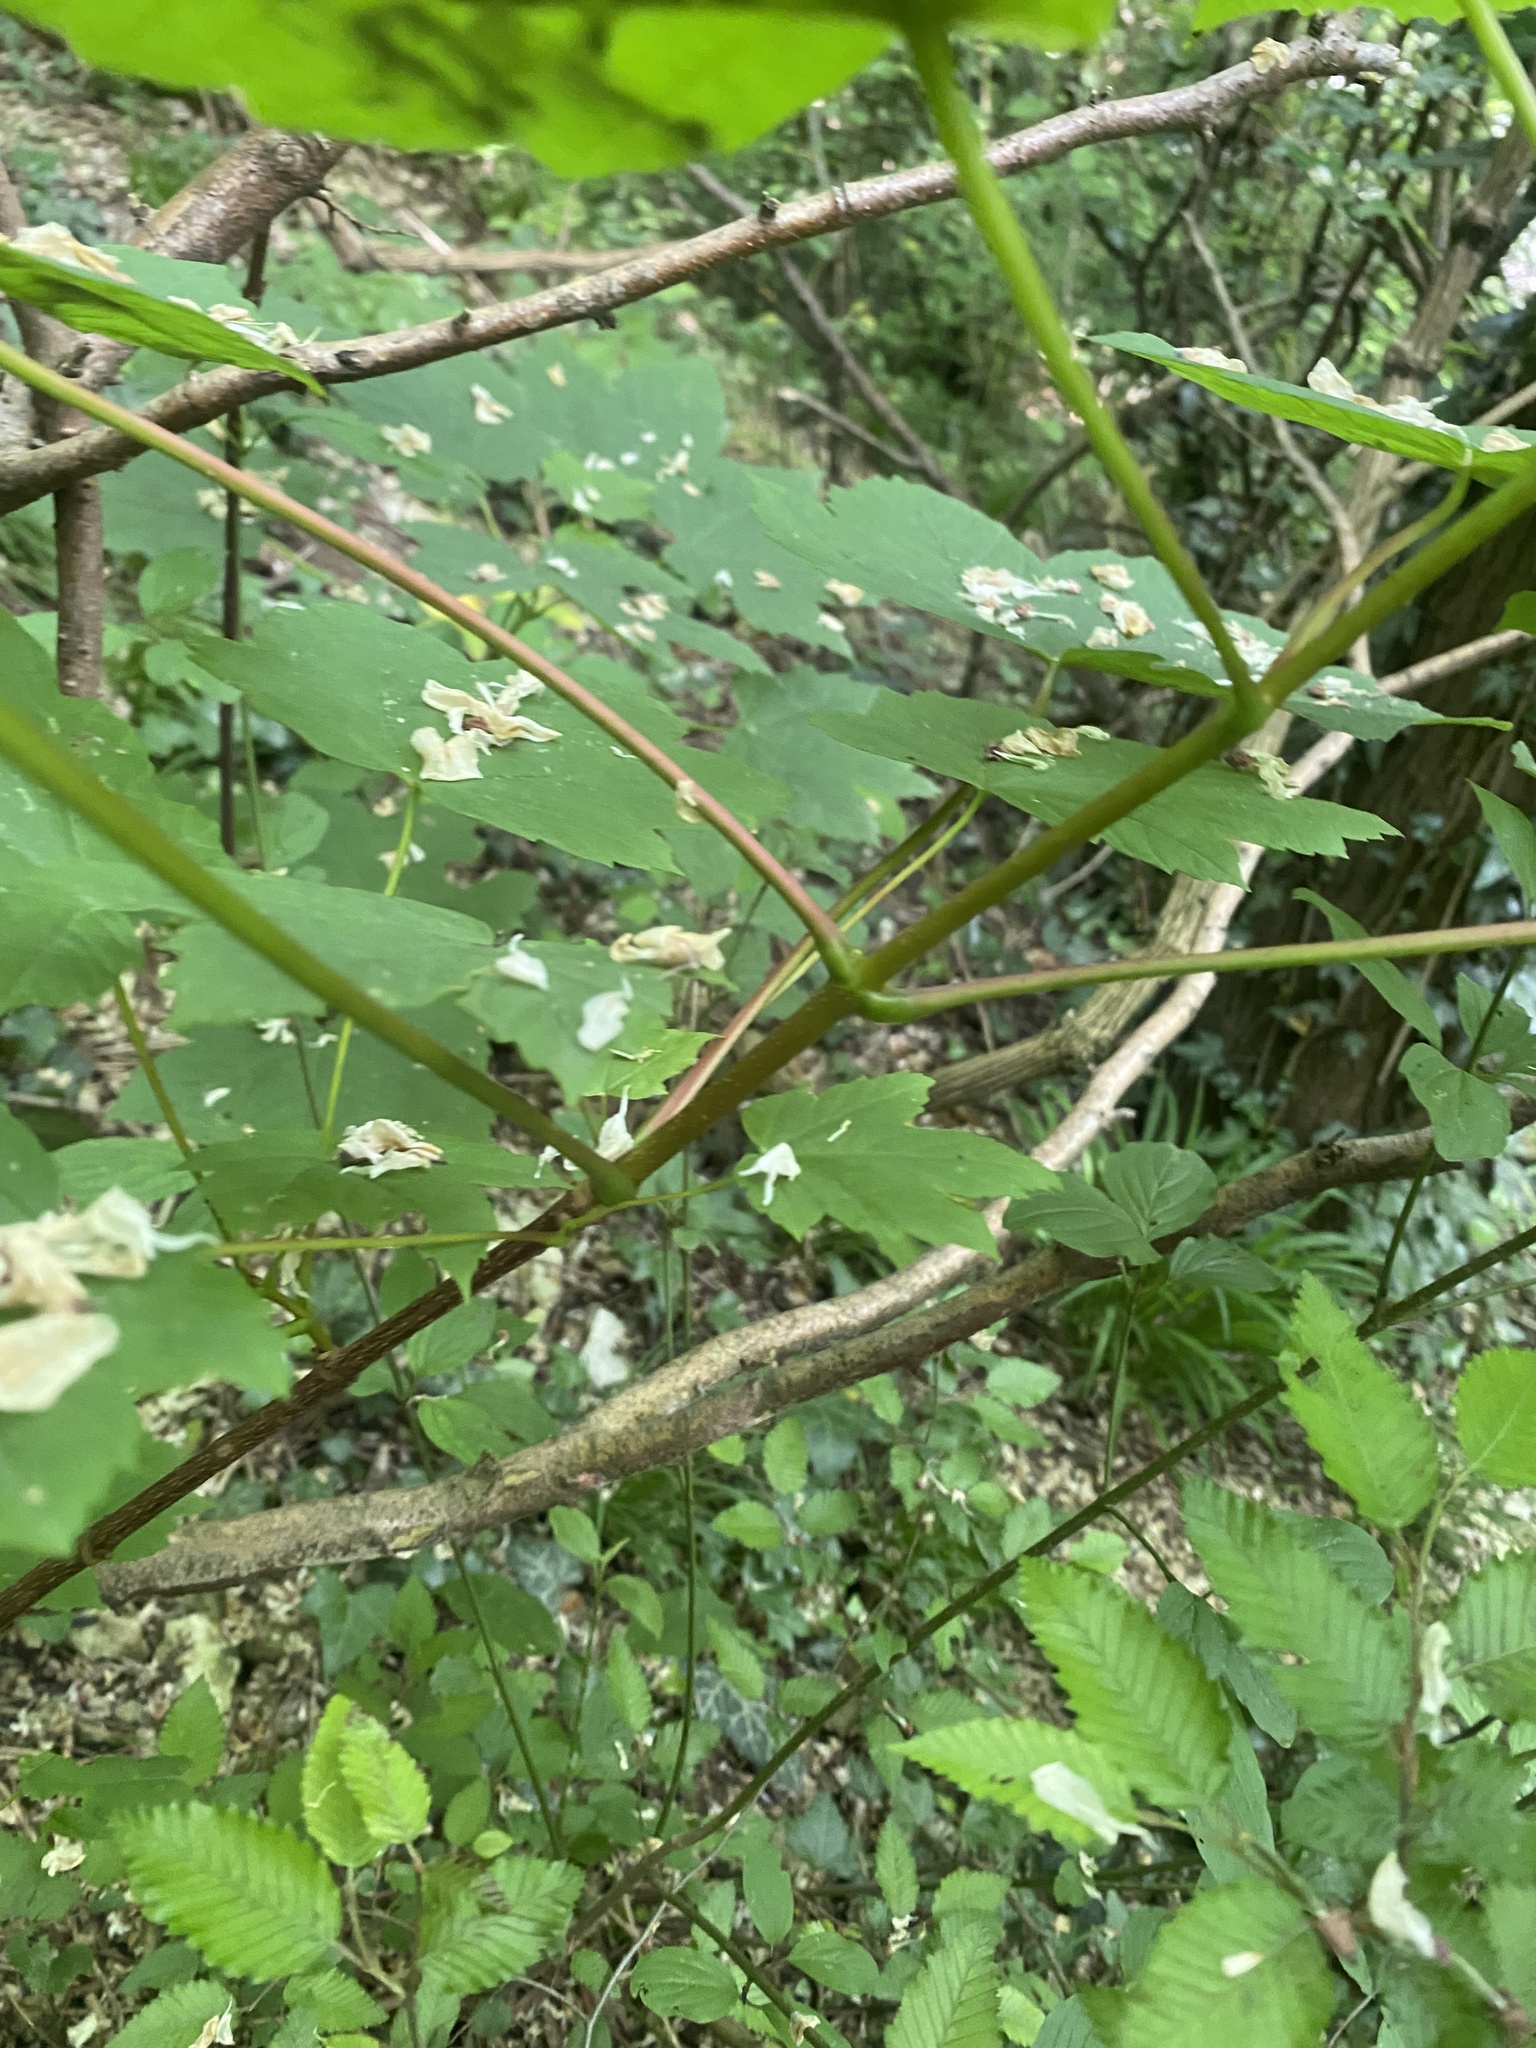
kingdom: Plantae
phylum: Tracheophyta
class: Magnoliopsida
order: Sapindales
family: Sapindaceae
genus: Acer
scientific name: Acer pseudoplatanus
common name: Sycamore
